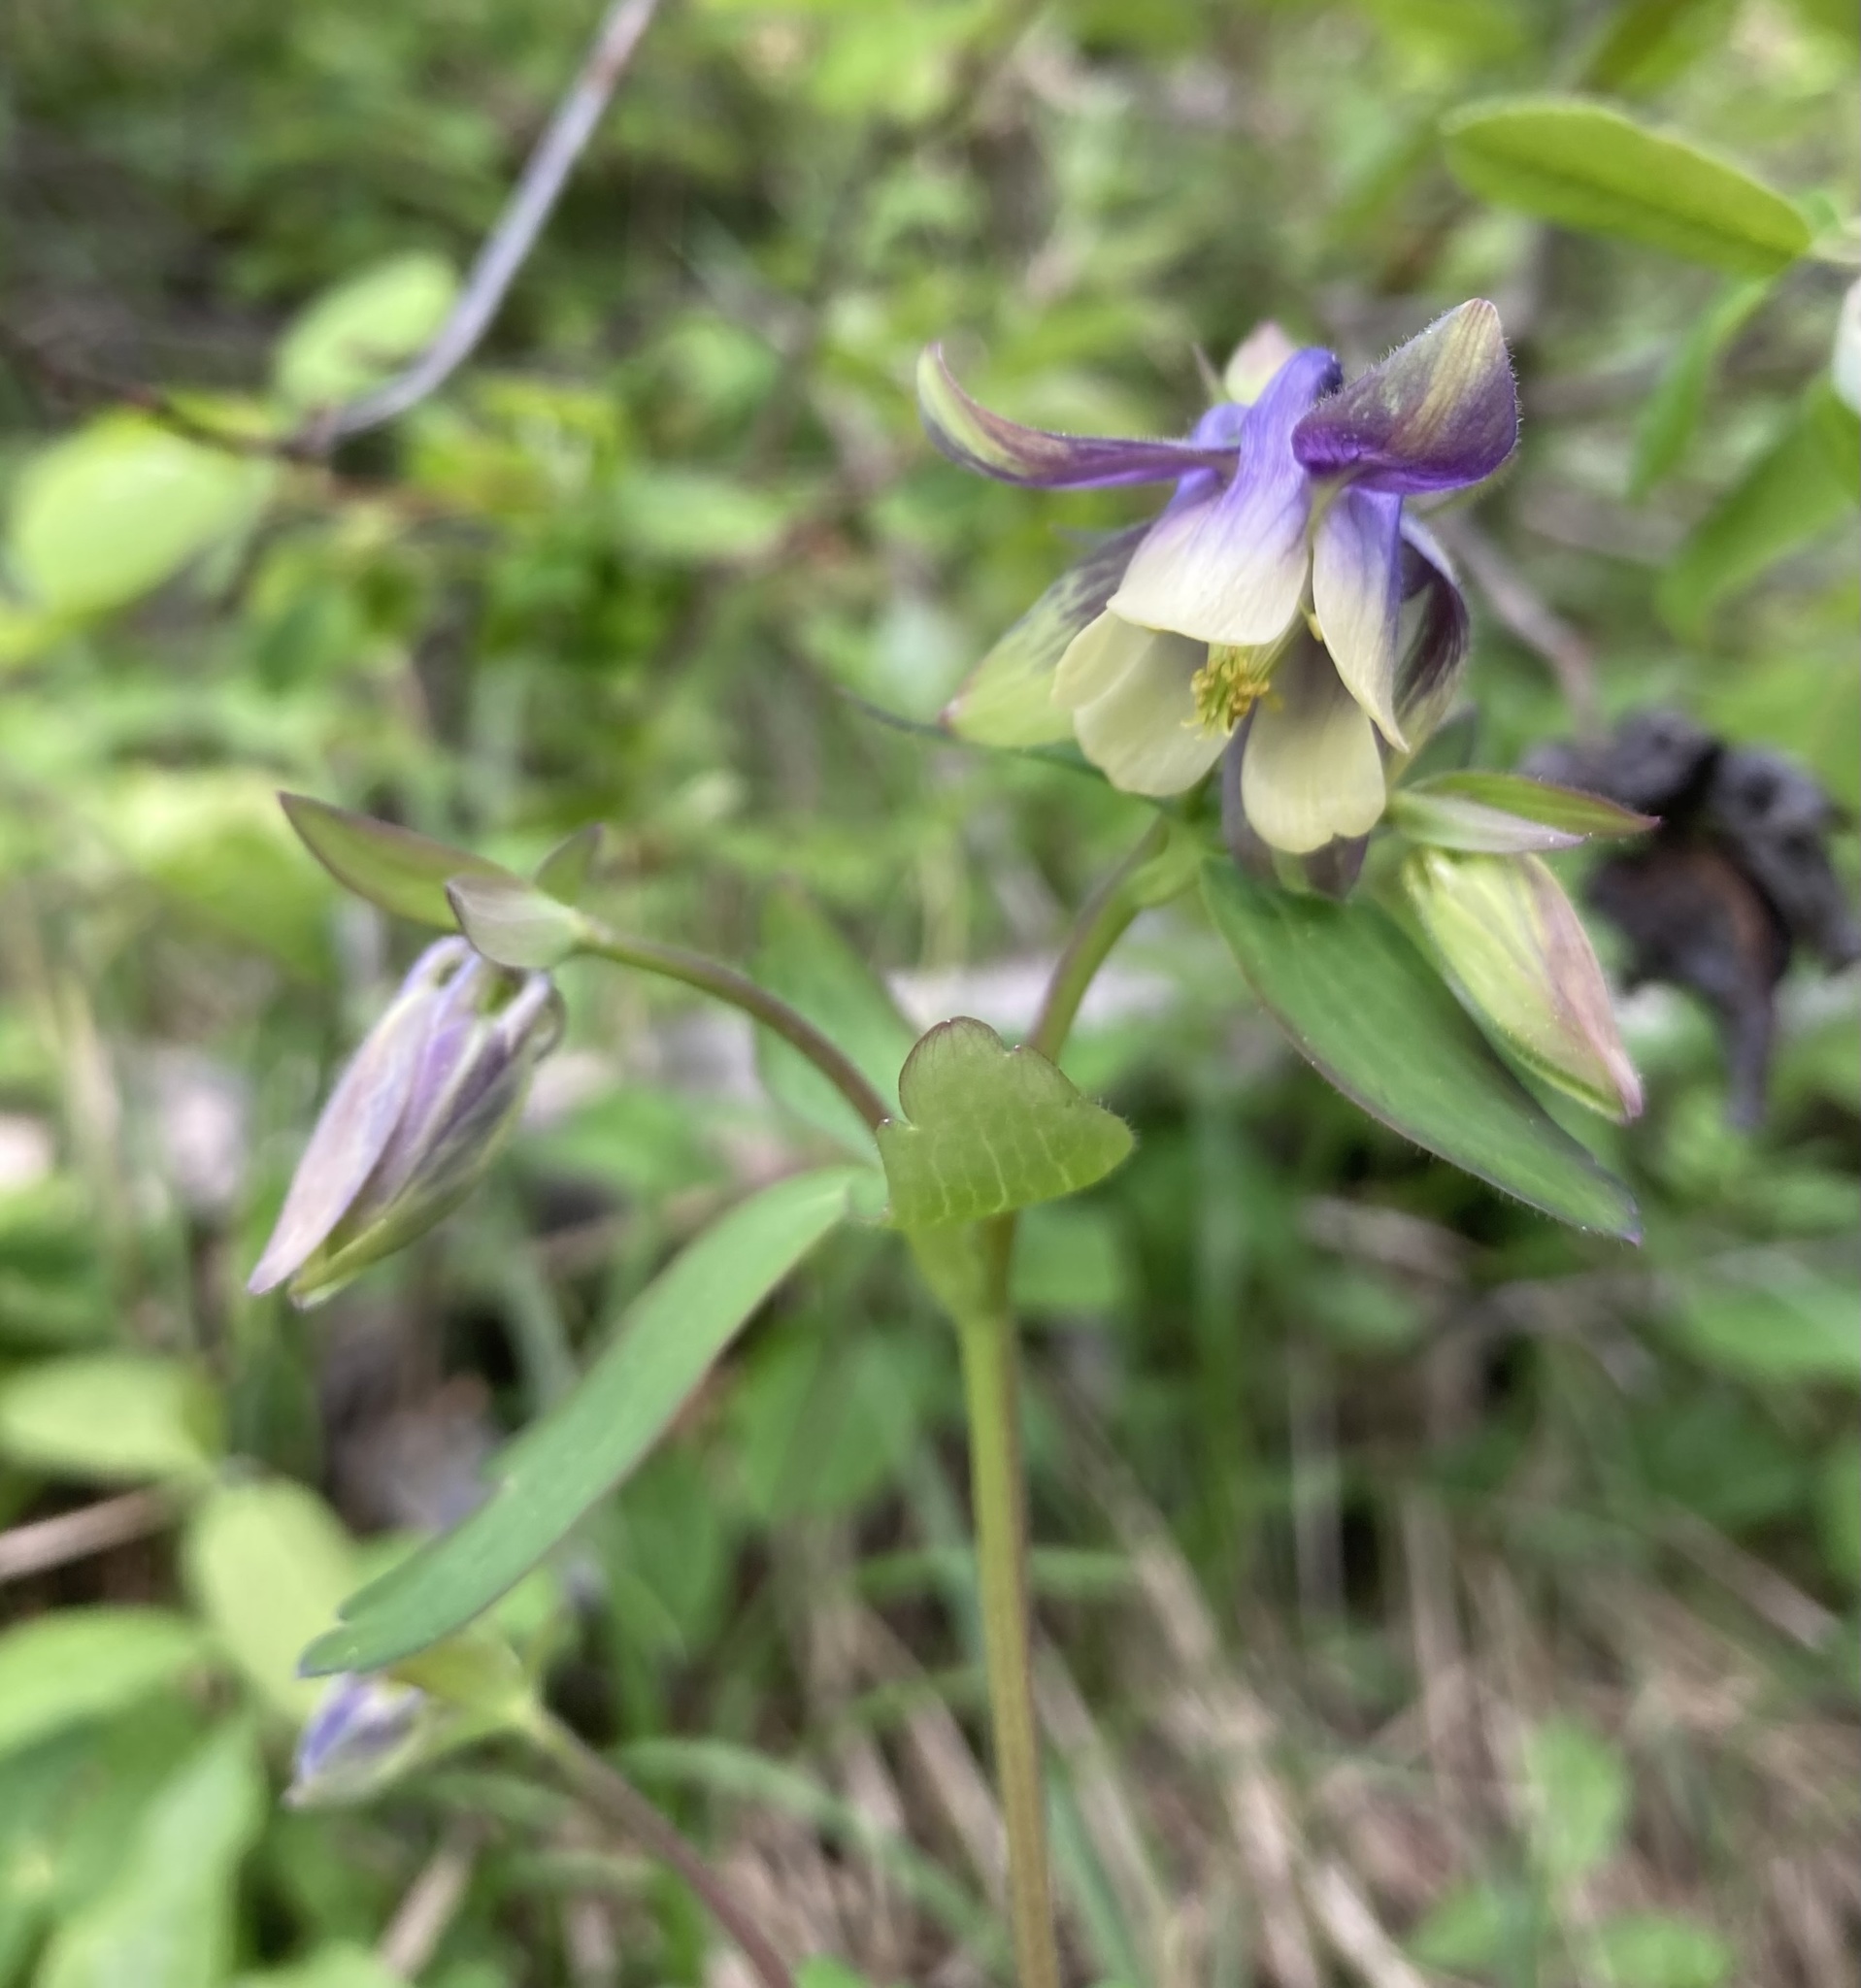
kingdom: Plantae
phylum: Tracheophyta
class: Magnoliopsida
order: Ranunculales
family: Ranunculaceae
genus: Aquilegia
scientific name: Aquilegia brevistyla
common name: Yukon columbine
